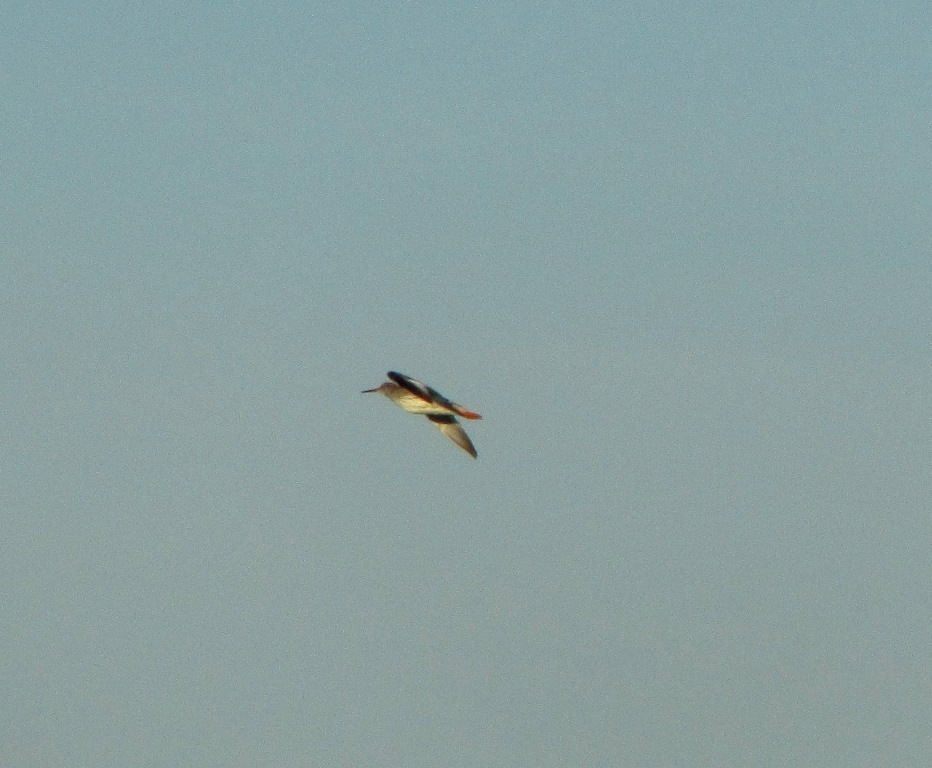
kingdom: Animalia
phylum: Chordata
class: Aves
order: Charadriiformes
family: Scolopacidae
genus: Tringa
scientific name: Tringa totanus
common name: Common redshank
